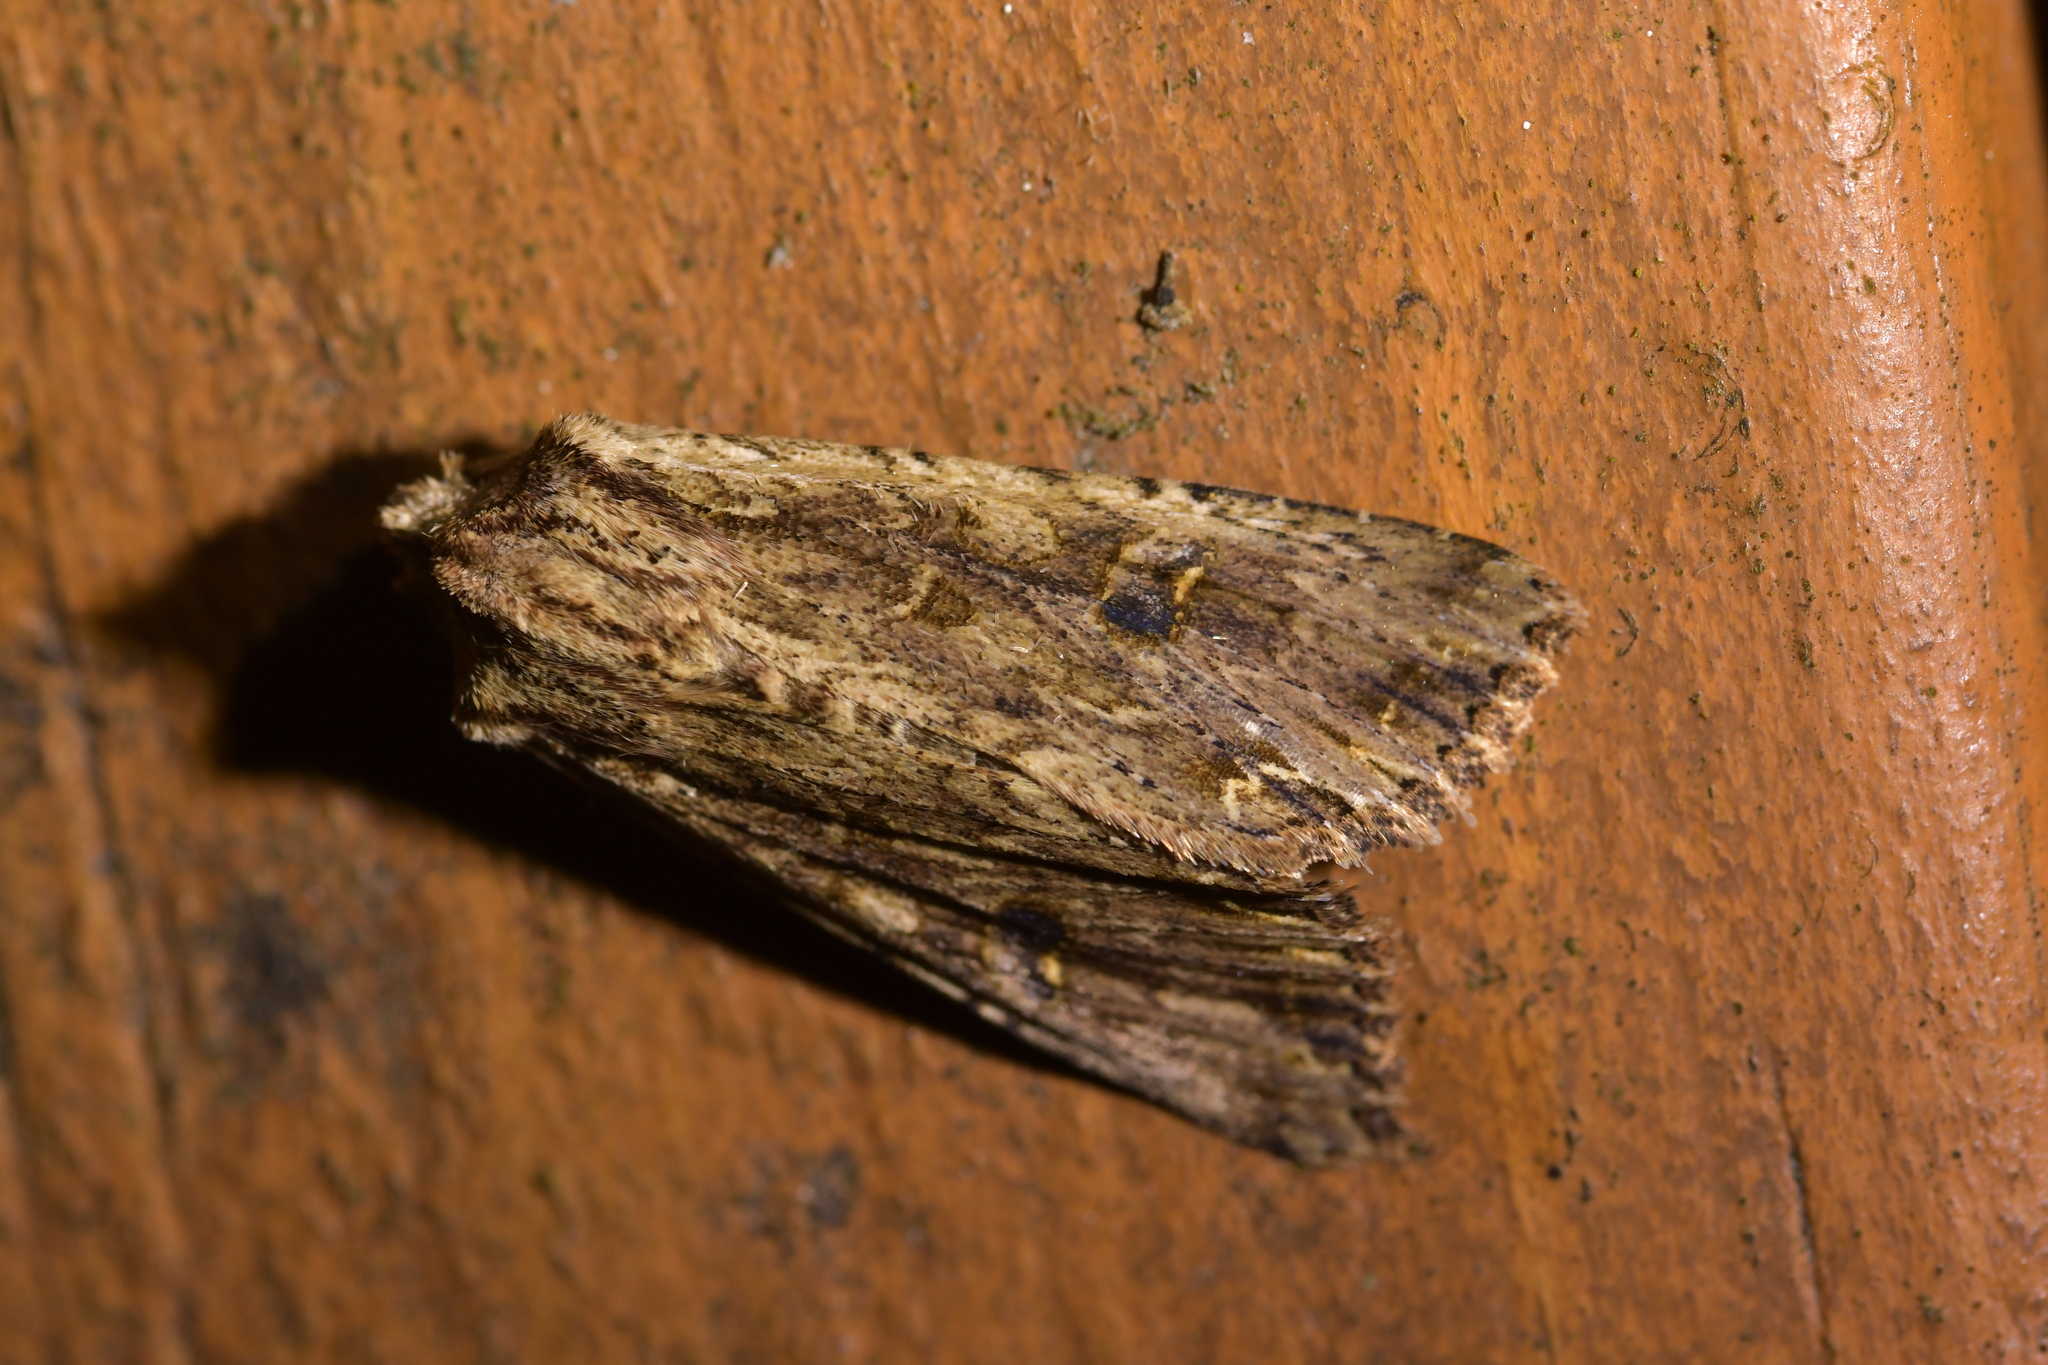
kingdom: Animalia
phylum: Arthropoda
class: Insecta
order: Lepidoptera
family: Noctuidae
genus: Ichneutica
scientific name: Ichneutica lignana
